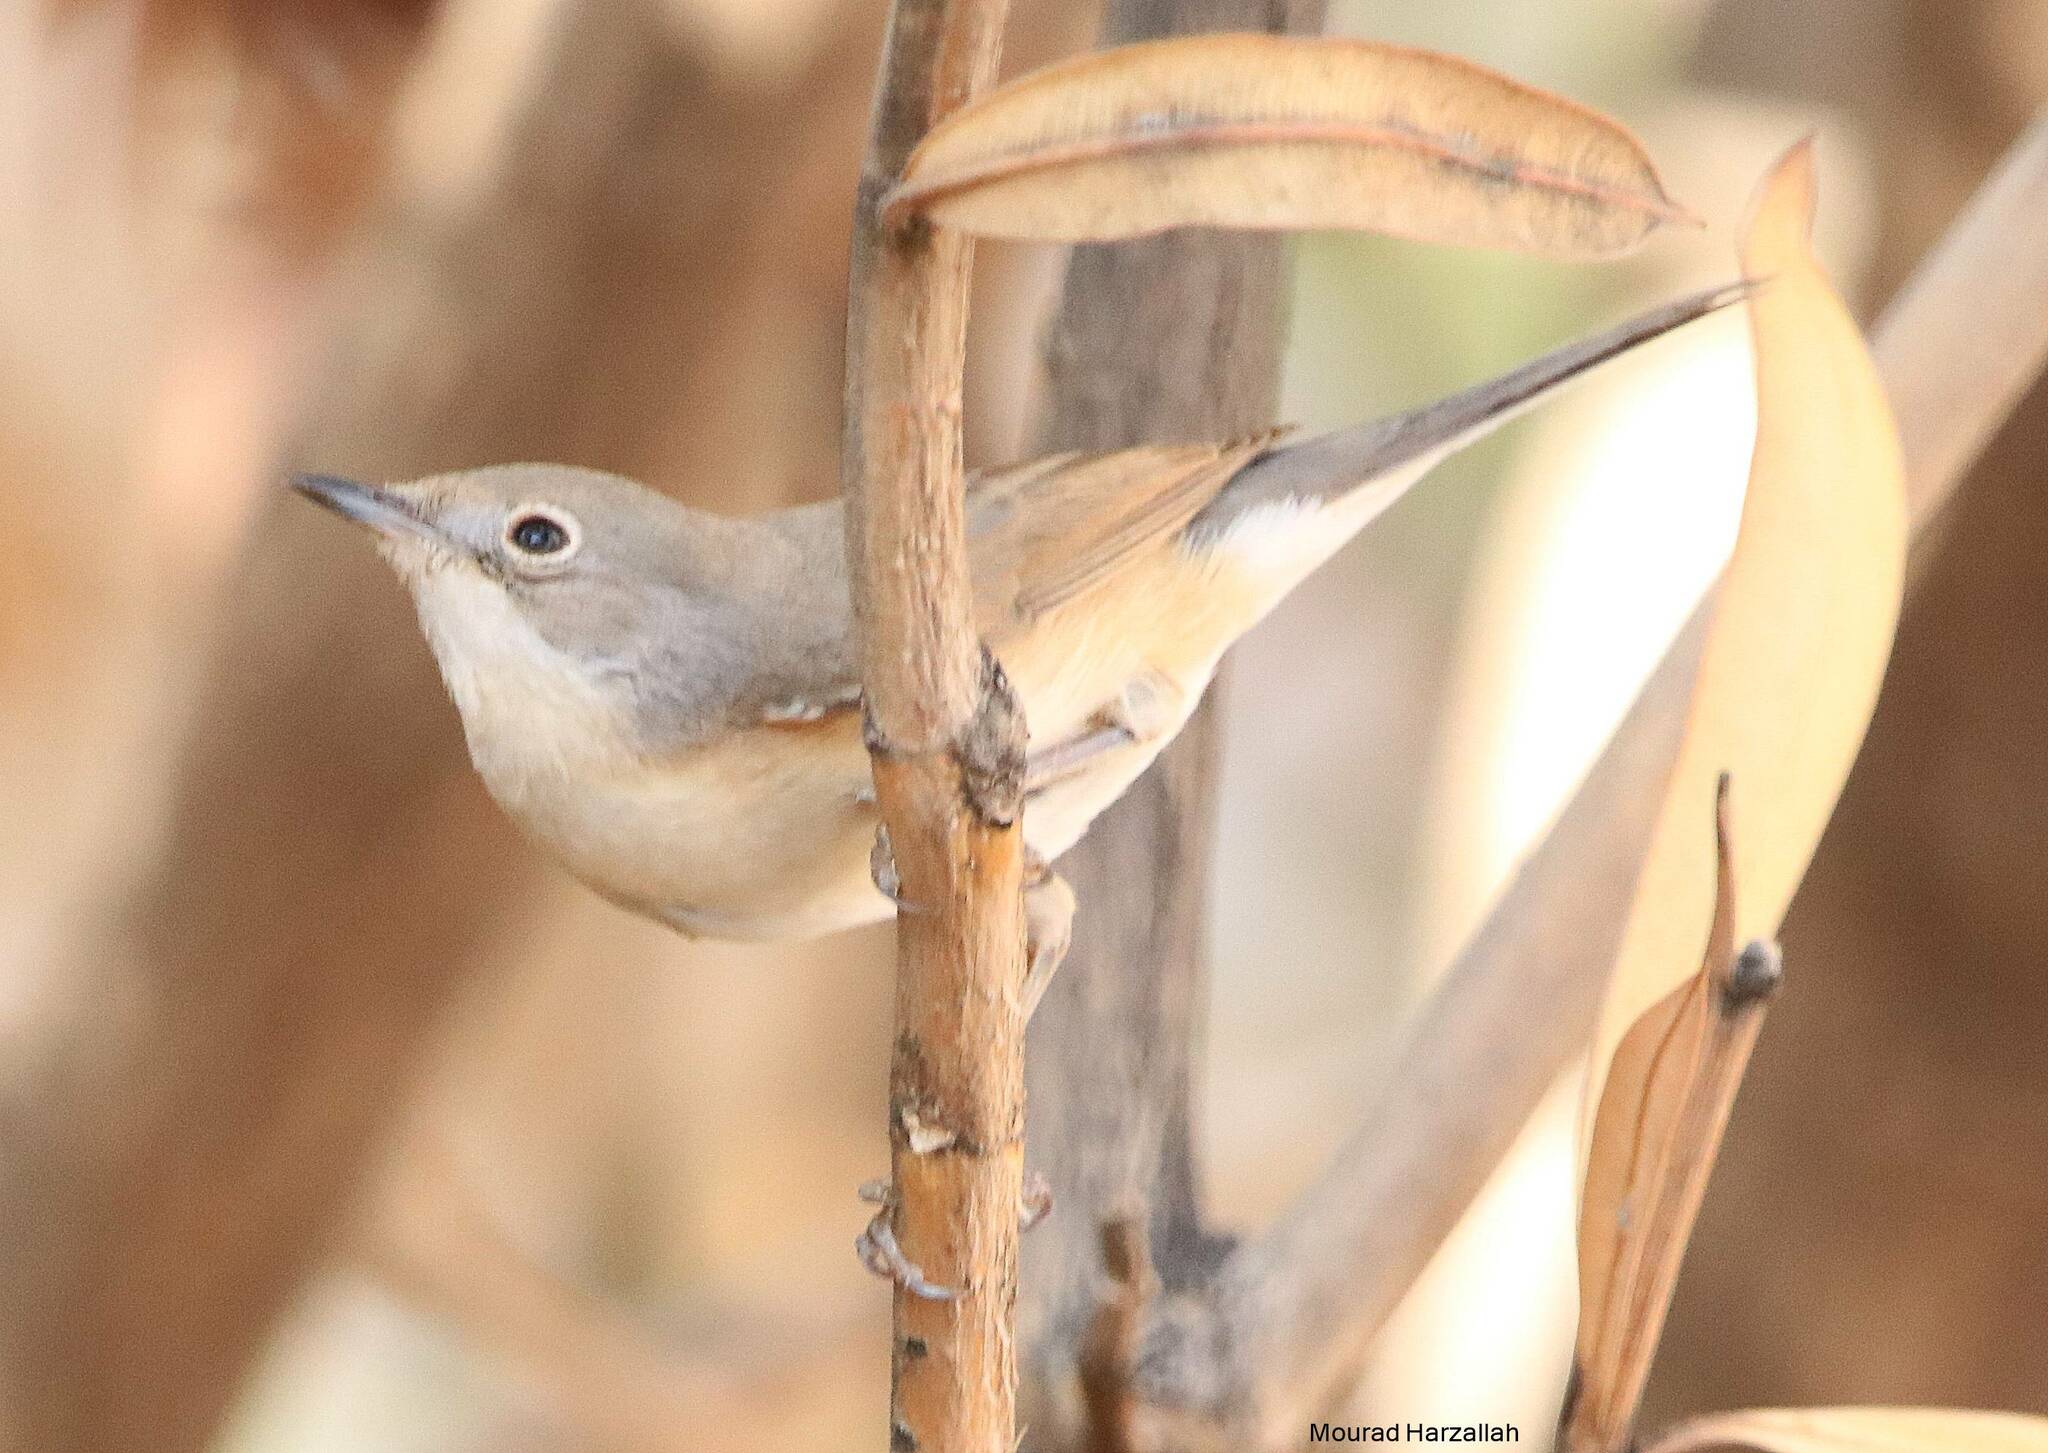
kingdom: Animalia
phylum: Chordata
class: Aves
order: Passeriformes
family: Sylviidae
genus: Curruca
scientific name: Curruca subalpina
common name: Moltoni's warbler
